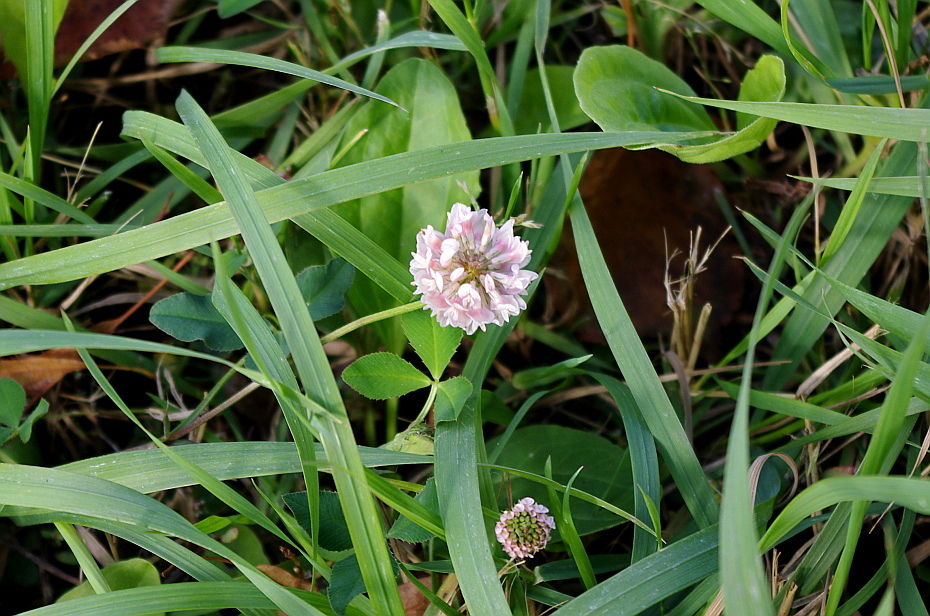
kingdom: Plantae
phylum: Tracheophyta
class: Magnoliopsida
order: Fabales
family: Fabaceae
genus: Trifolium
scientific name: Trifolium hybridum
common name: Alsike clover
